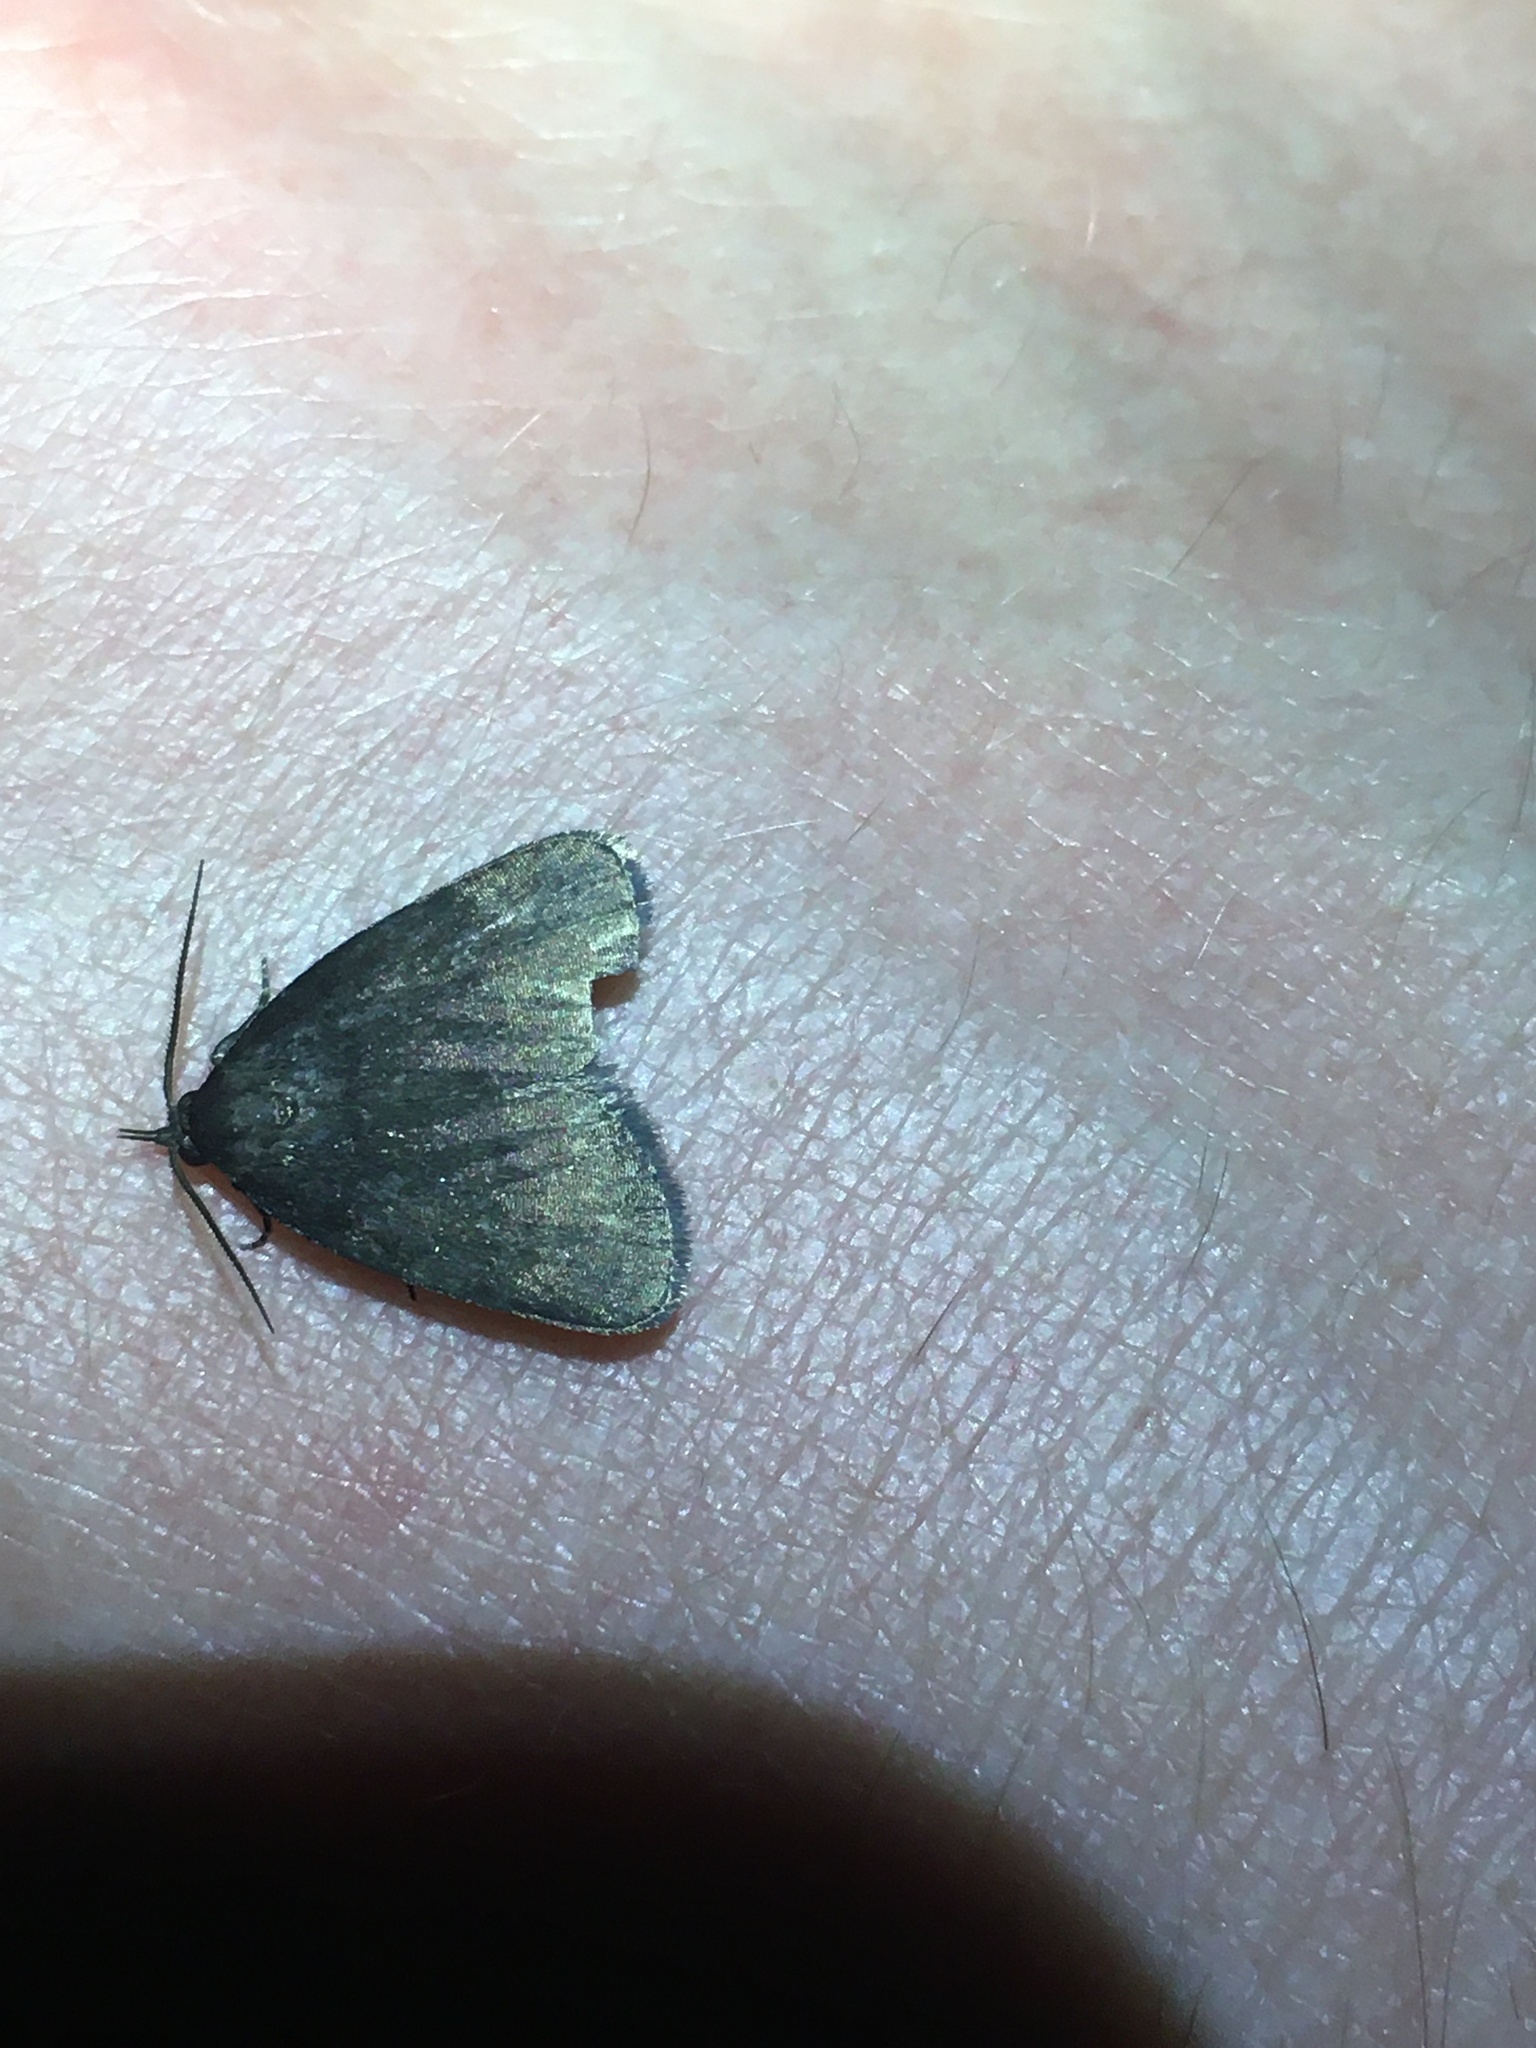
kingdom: Animalia
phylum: Arthropoda
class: Insecta
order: Lepidoptera
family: Erebidae
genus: Idia
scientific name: Idia rotundalis
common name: Rotund idia moth
